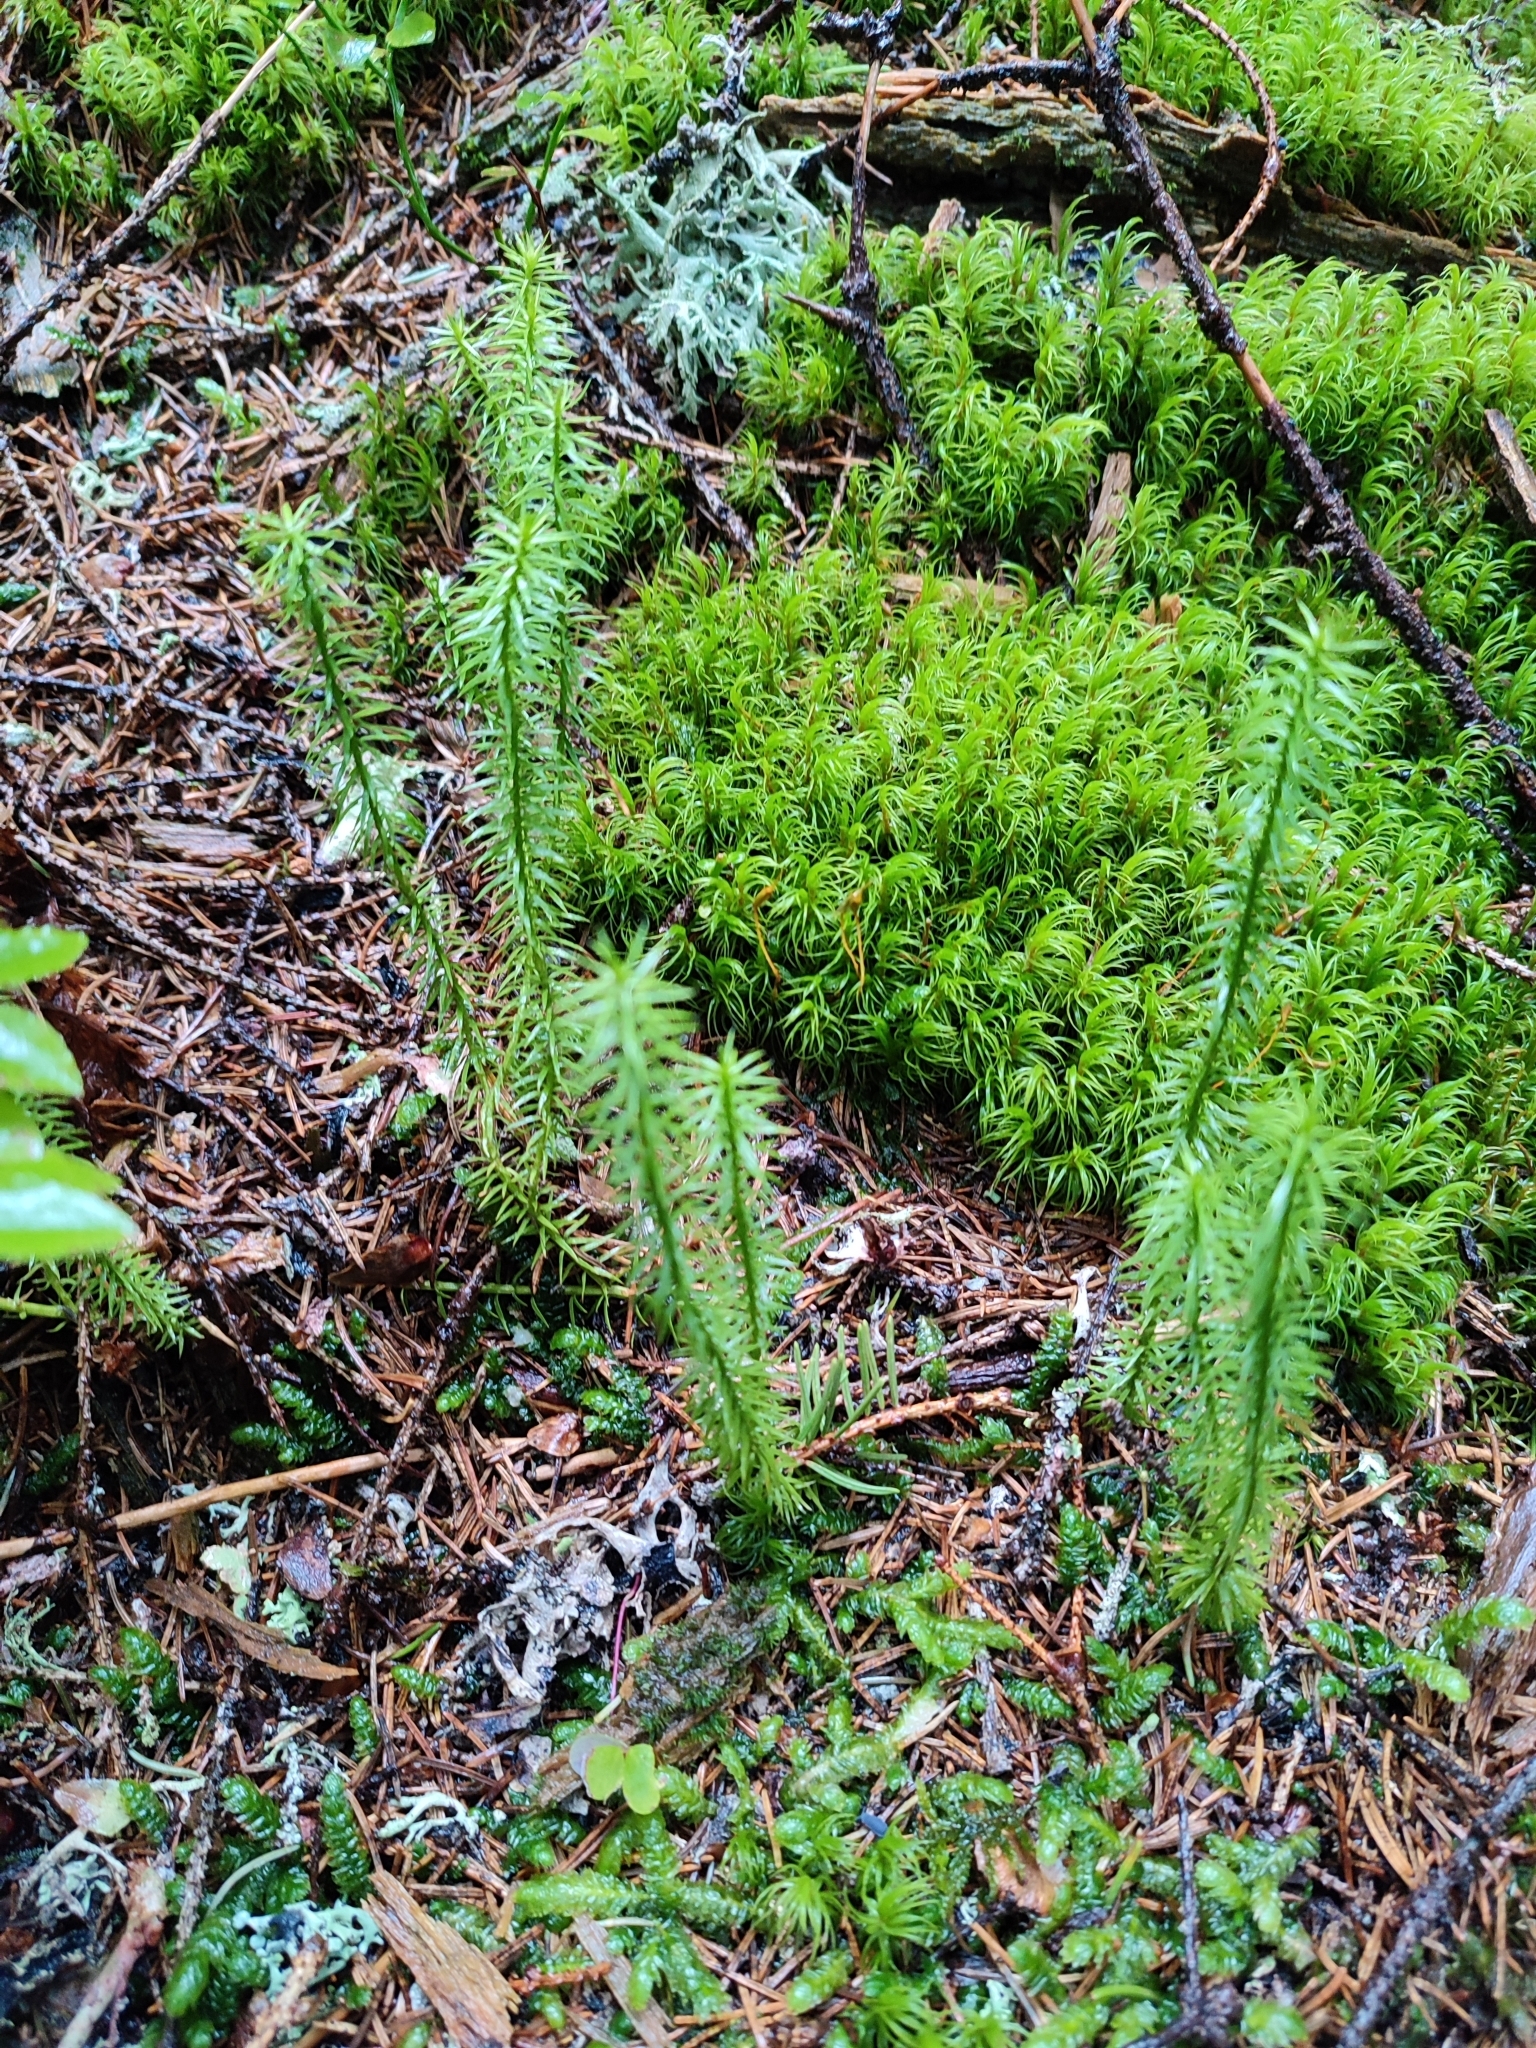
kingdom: Plantae
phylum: Tracheophyta
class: Lycopodiopsida
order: Lycopodiales
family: Lycopodiaceae
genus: Spinulum
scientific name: Spinulum annotinum
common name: Interrupted club-moss
